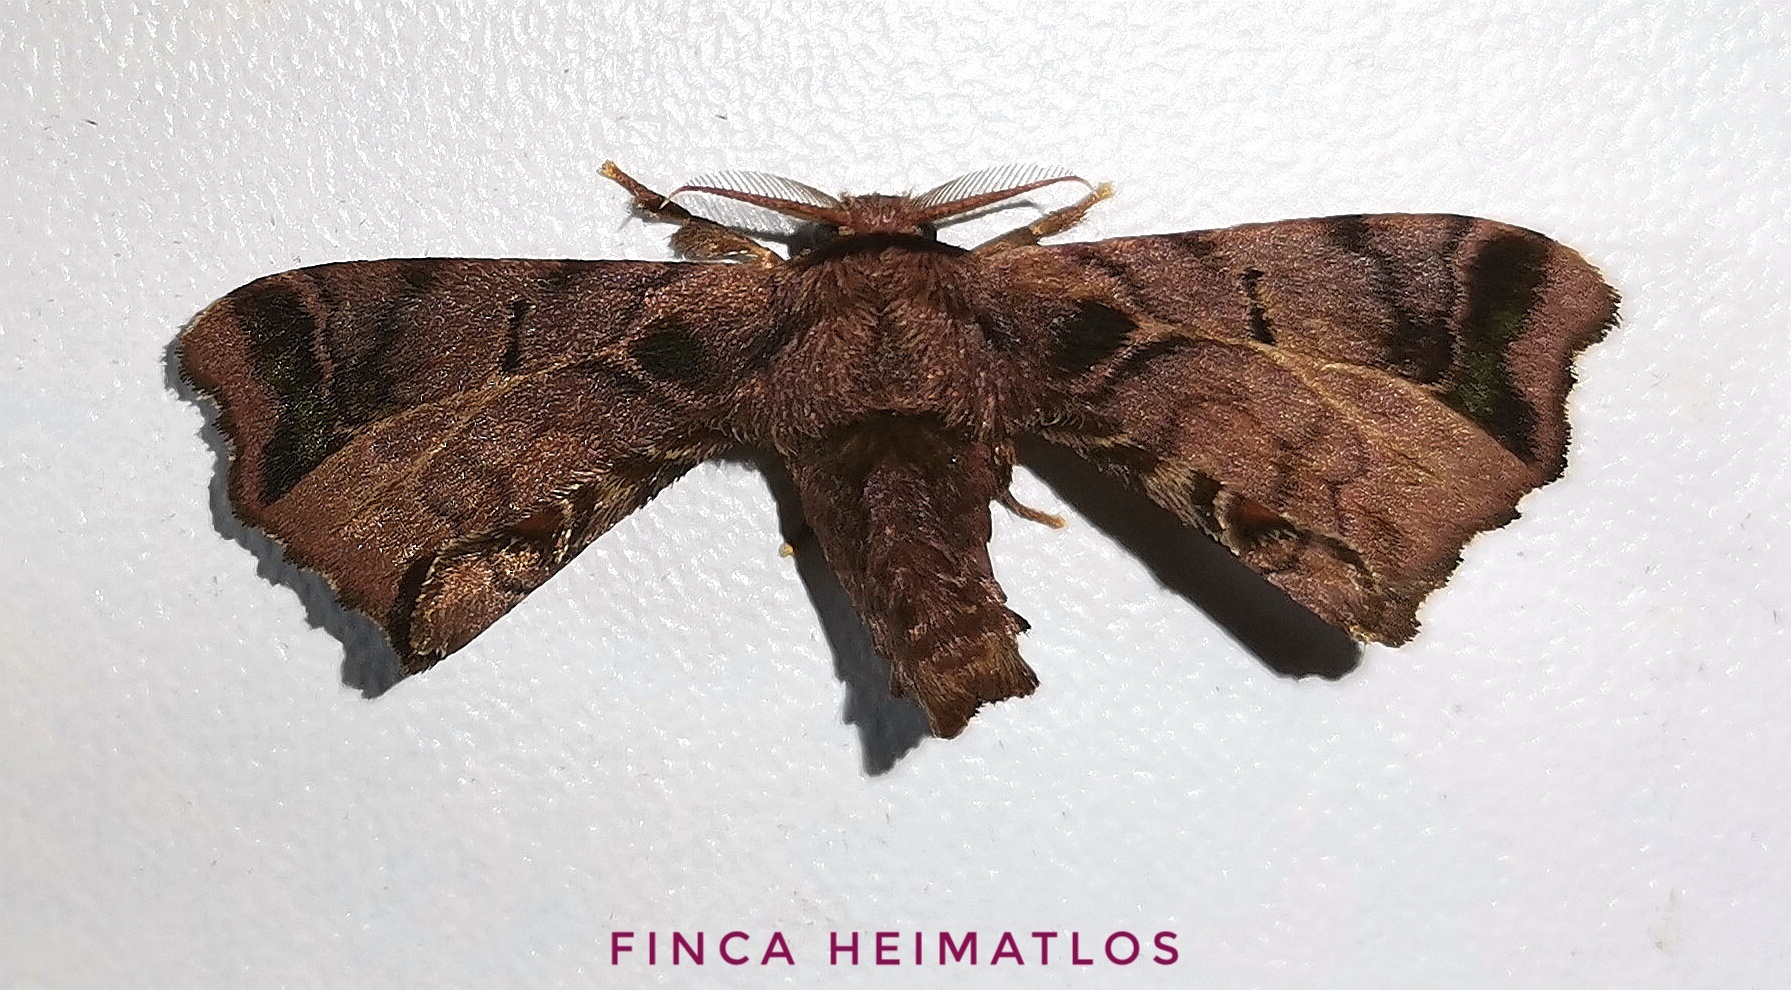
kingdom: Animalia
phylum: Arthropoda
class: Insecta
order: Lepidoptera
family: Bombycidae
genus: Quentalia
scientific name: Quentalia chromana
